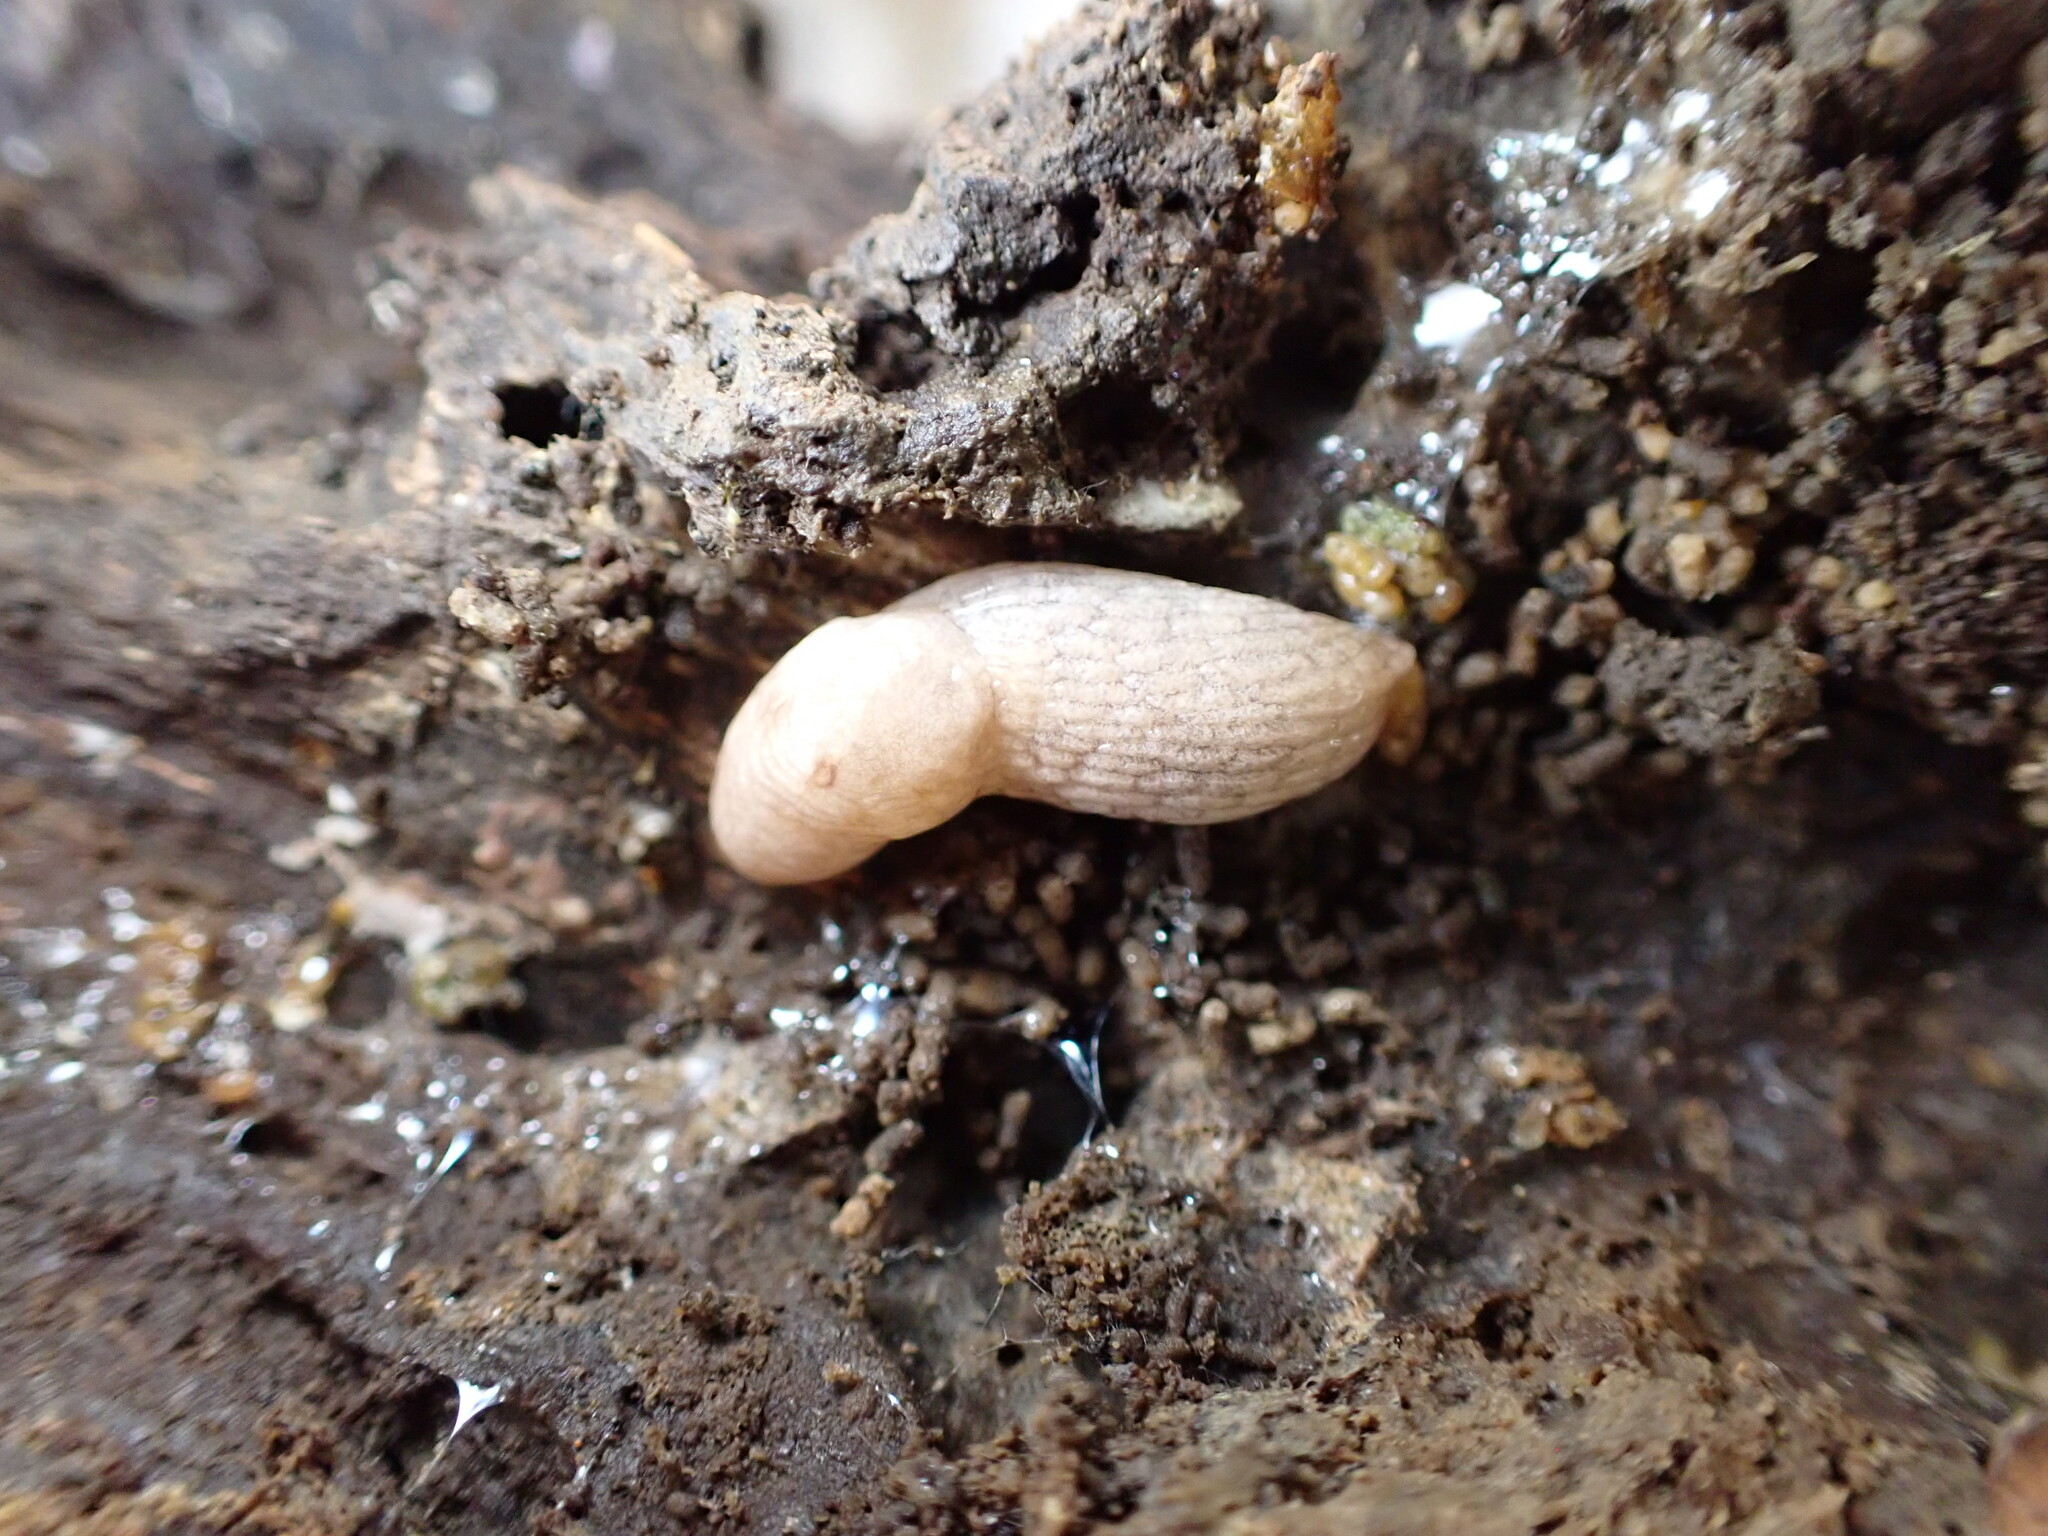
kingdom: Animalia
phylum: Mollusca
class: Gastropoda
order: Stylommatophora
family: Agriolimacidae
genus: Deroceras
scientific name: Deroceras reticulatum
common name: Gray field slug
